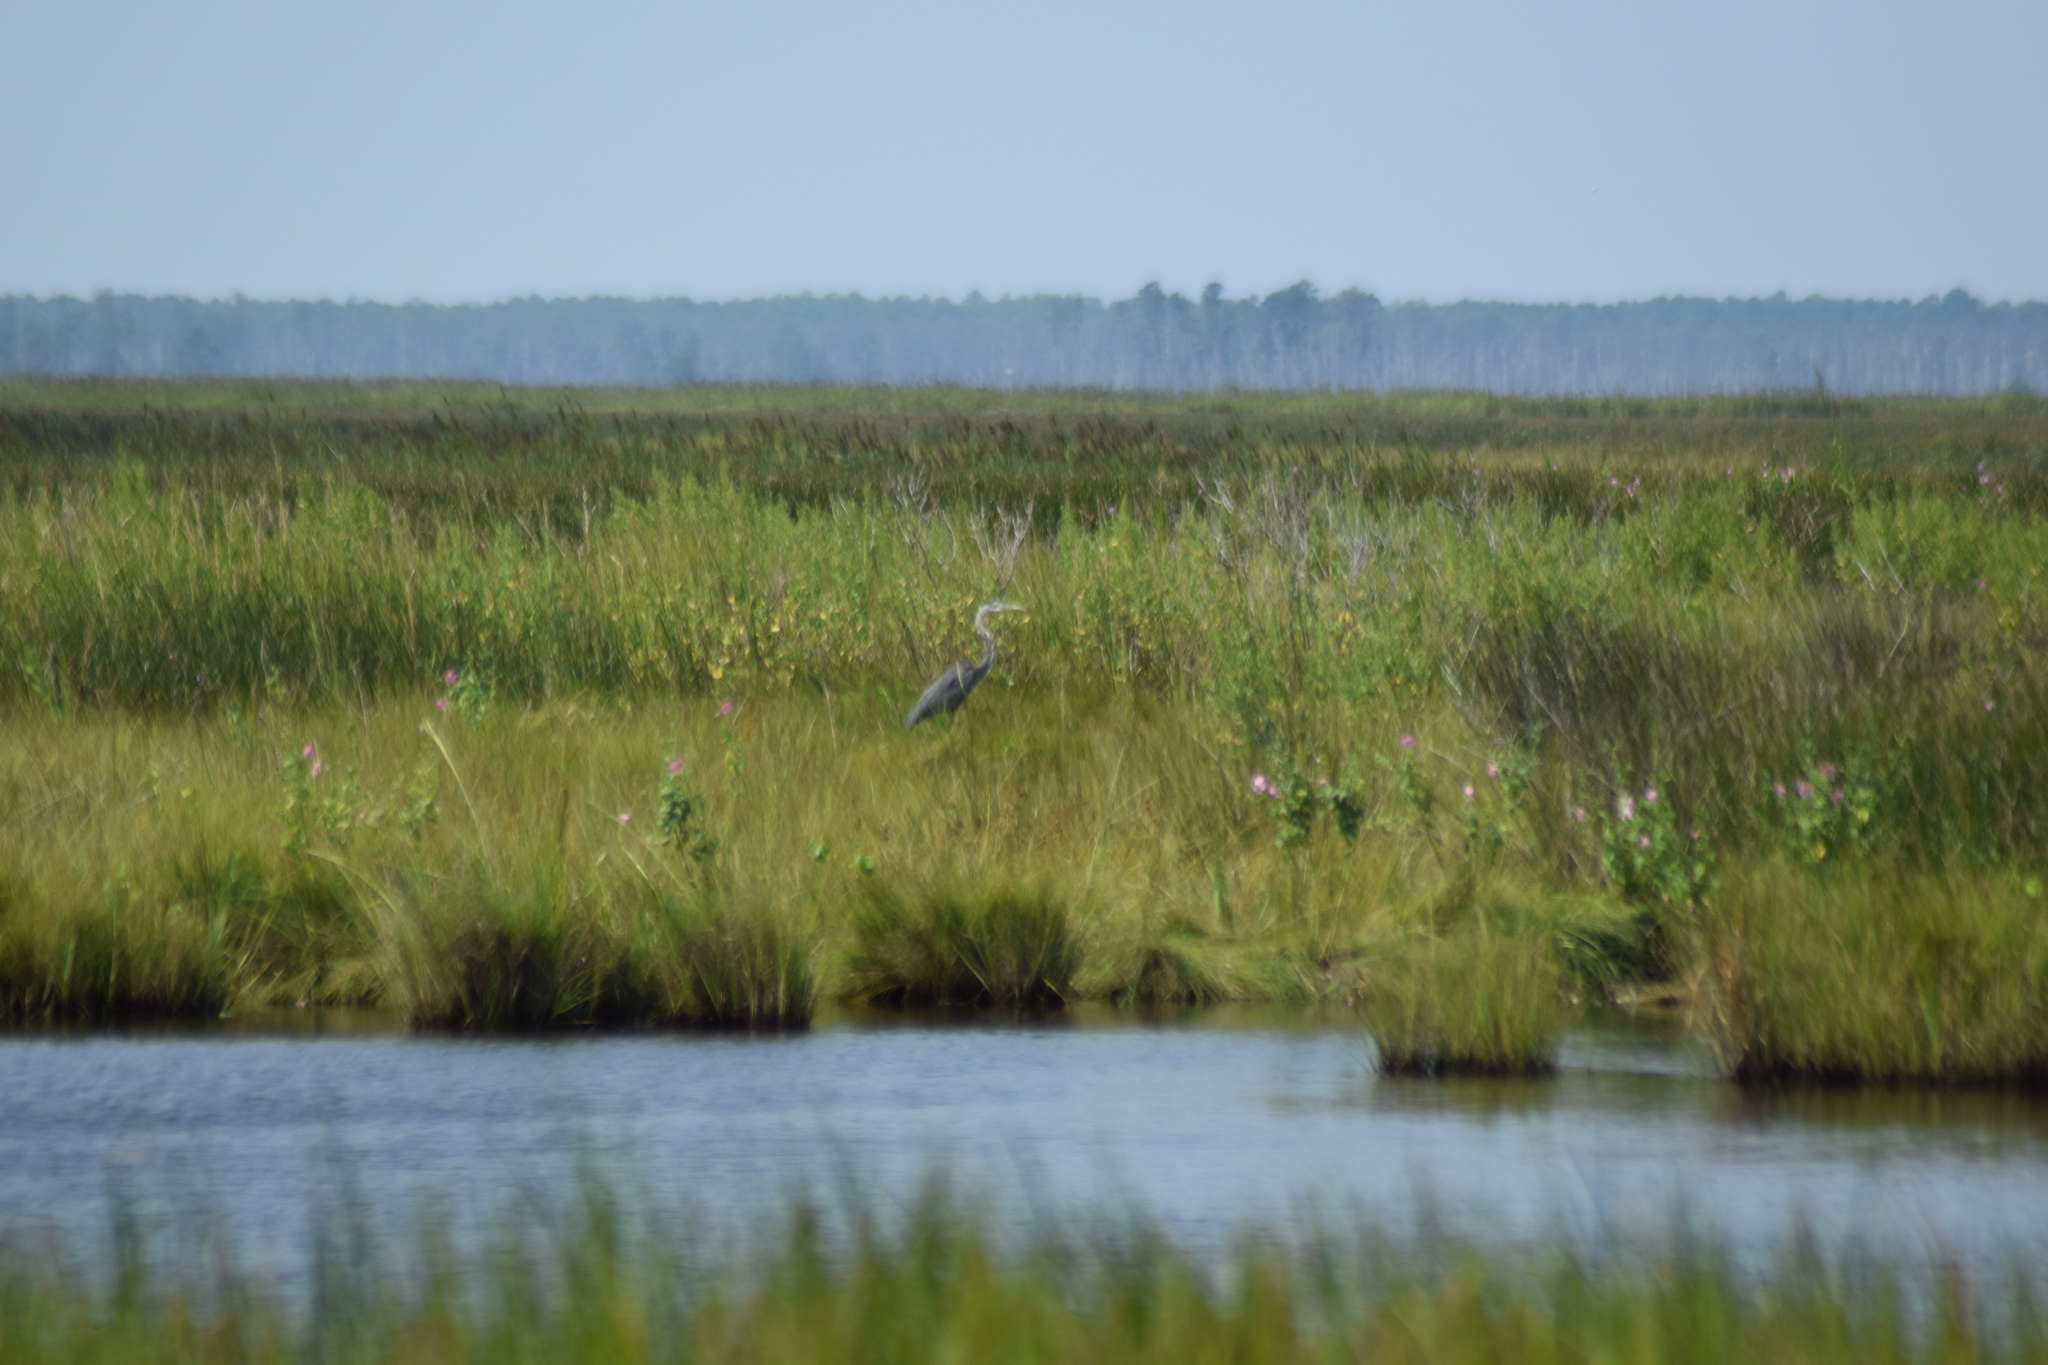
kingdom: Animalia
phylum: Chordata
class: Aves
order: Pelecaniformes
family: Ardeidae
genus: Ardea
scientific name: Ardea herodias
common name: Great blue heron
